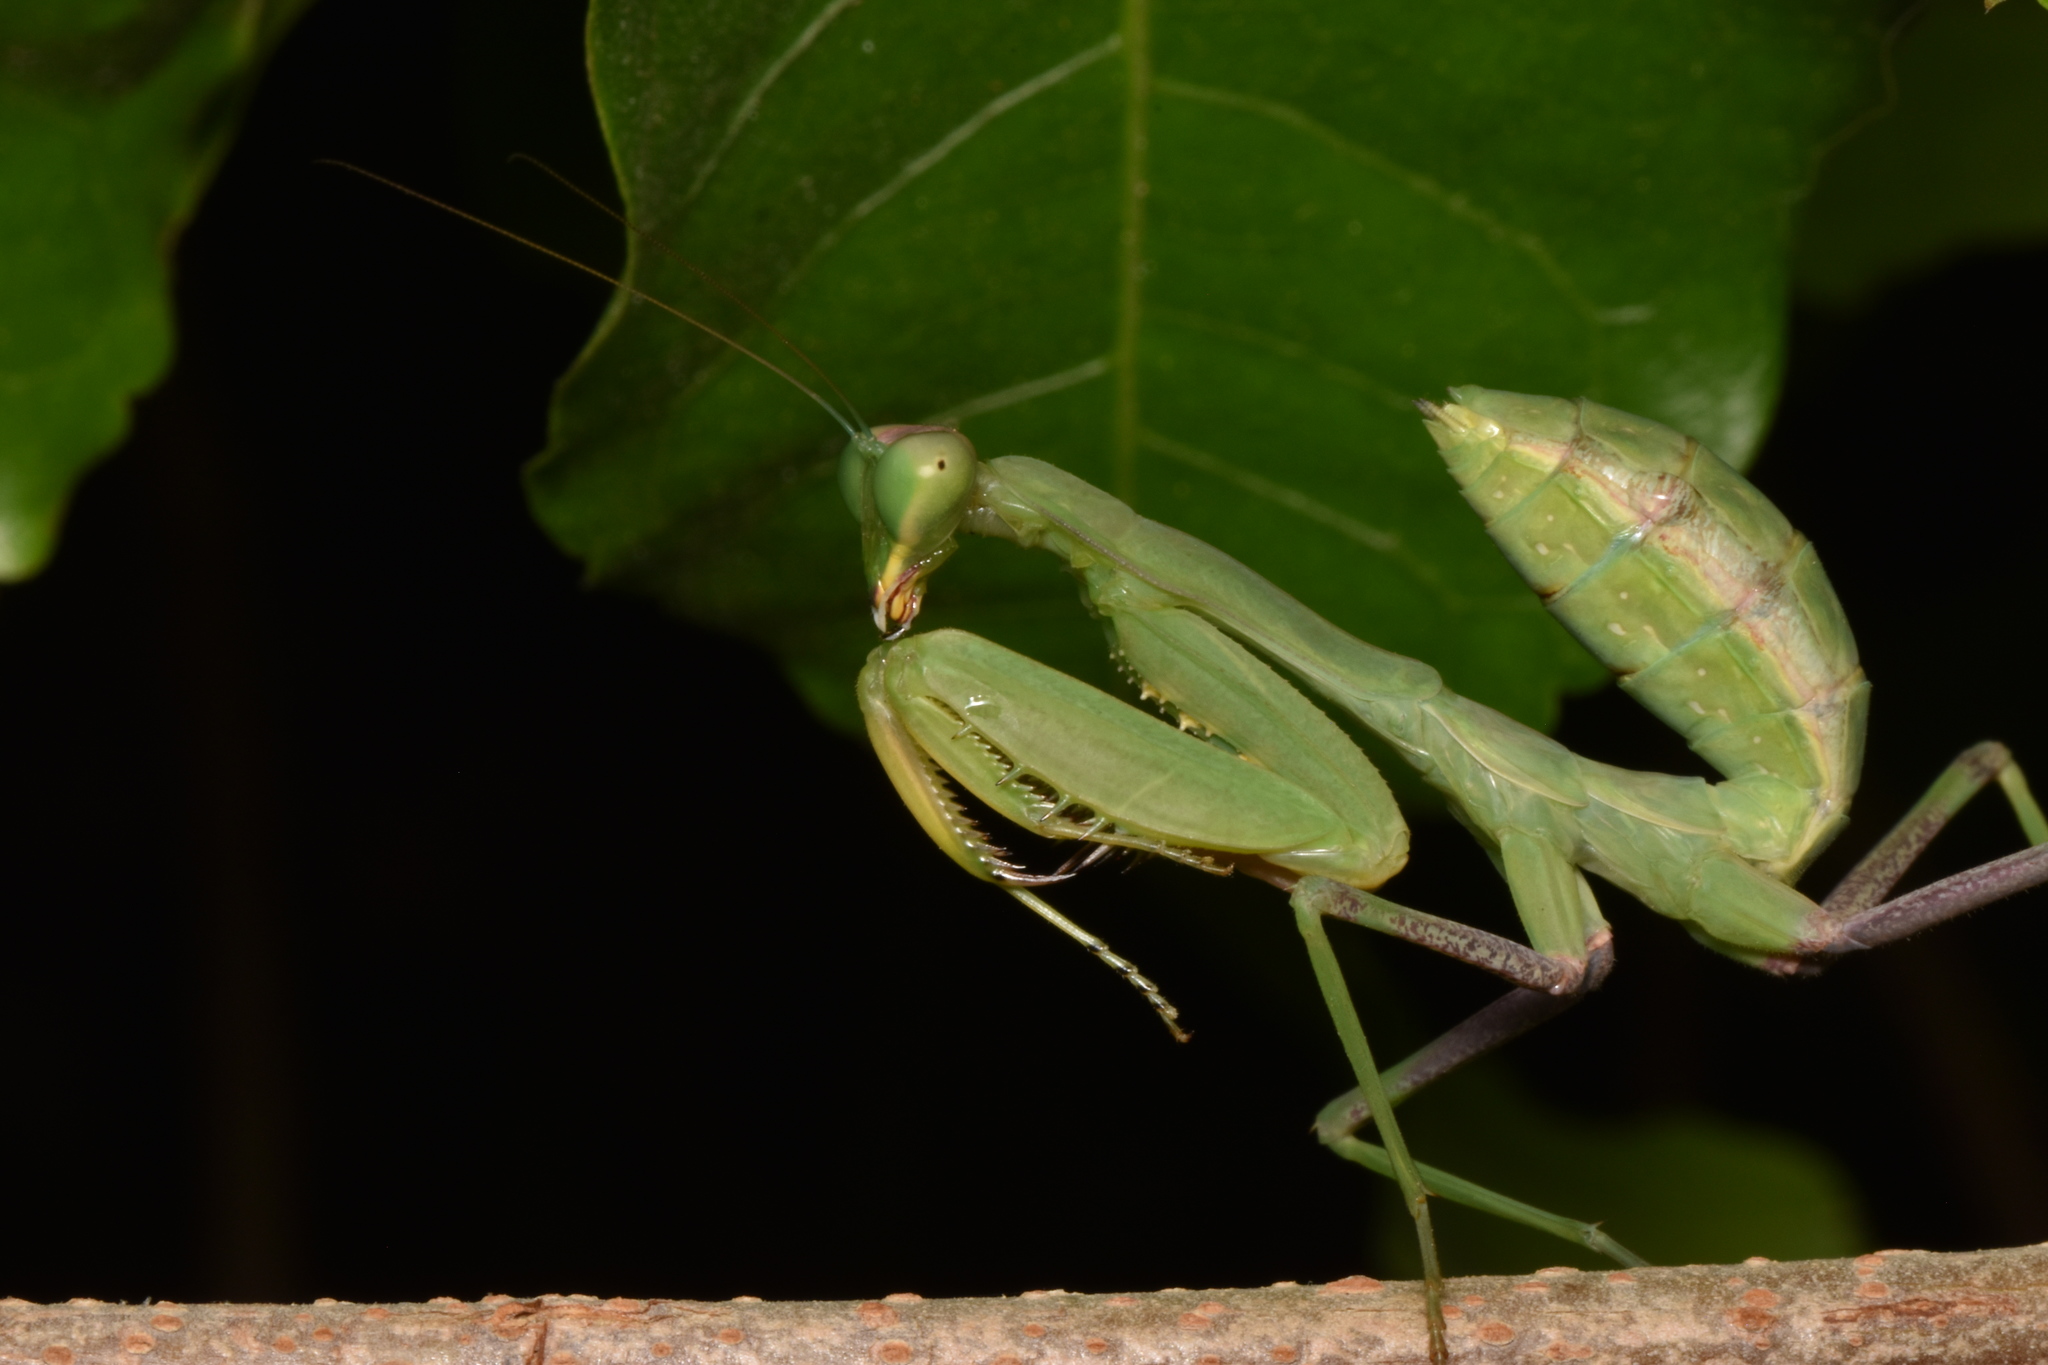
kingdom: Animalia
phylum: Arthropoda
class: Insecta
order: Mantodea
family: Mantidae
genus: Sphodromantis
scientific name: Sphodromantis viridis
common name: Giant african mantis
